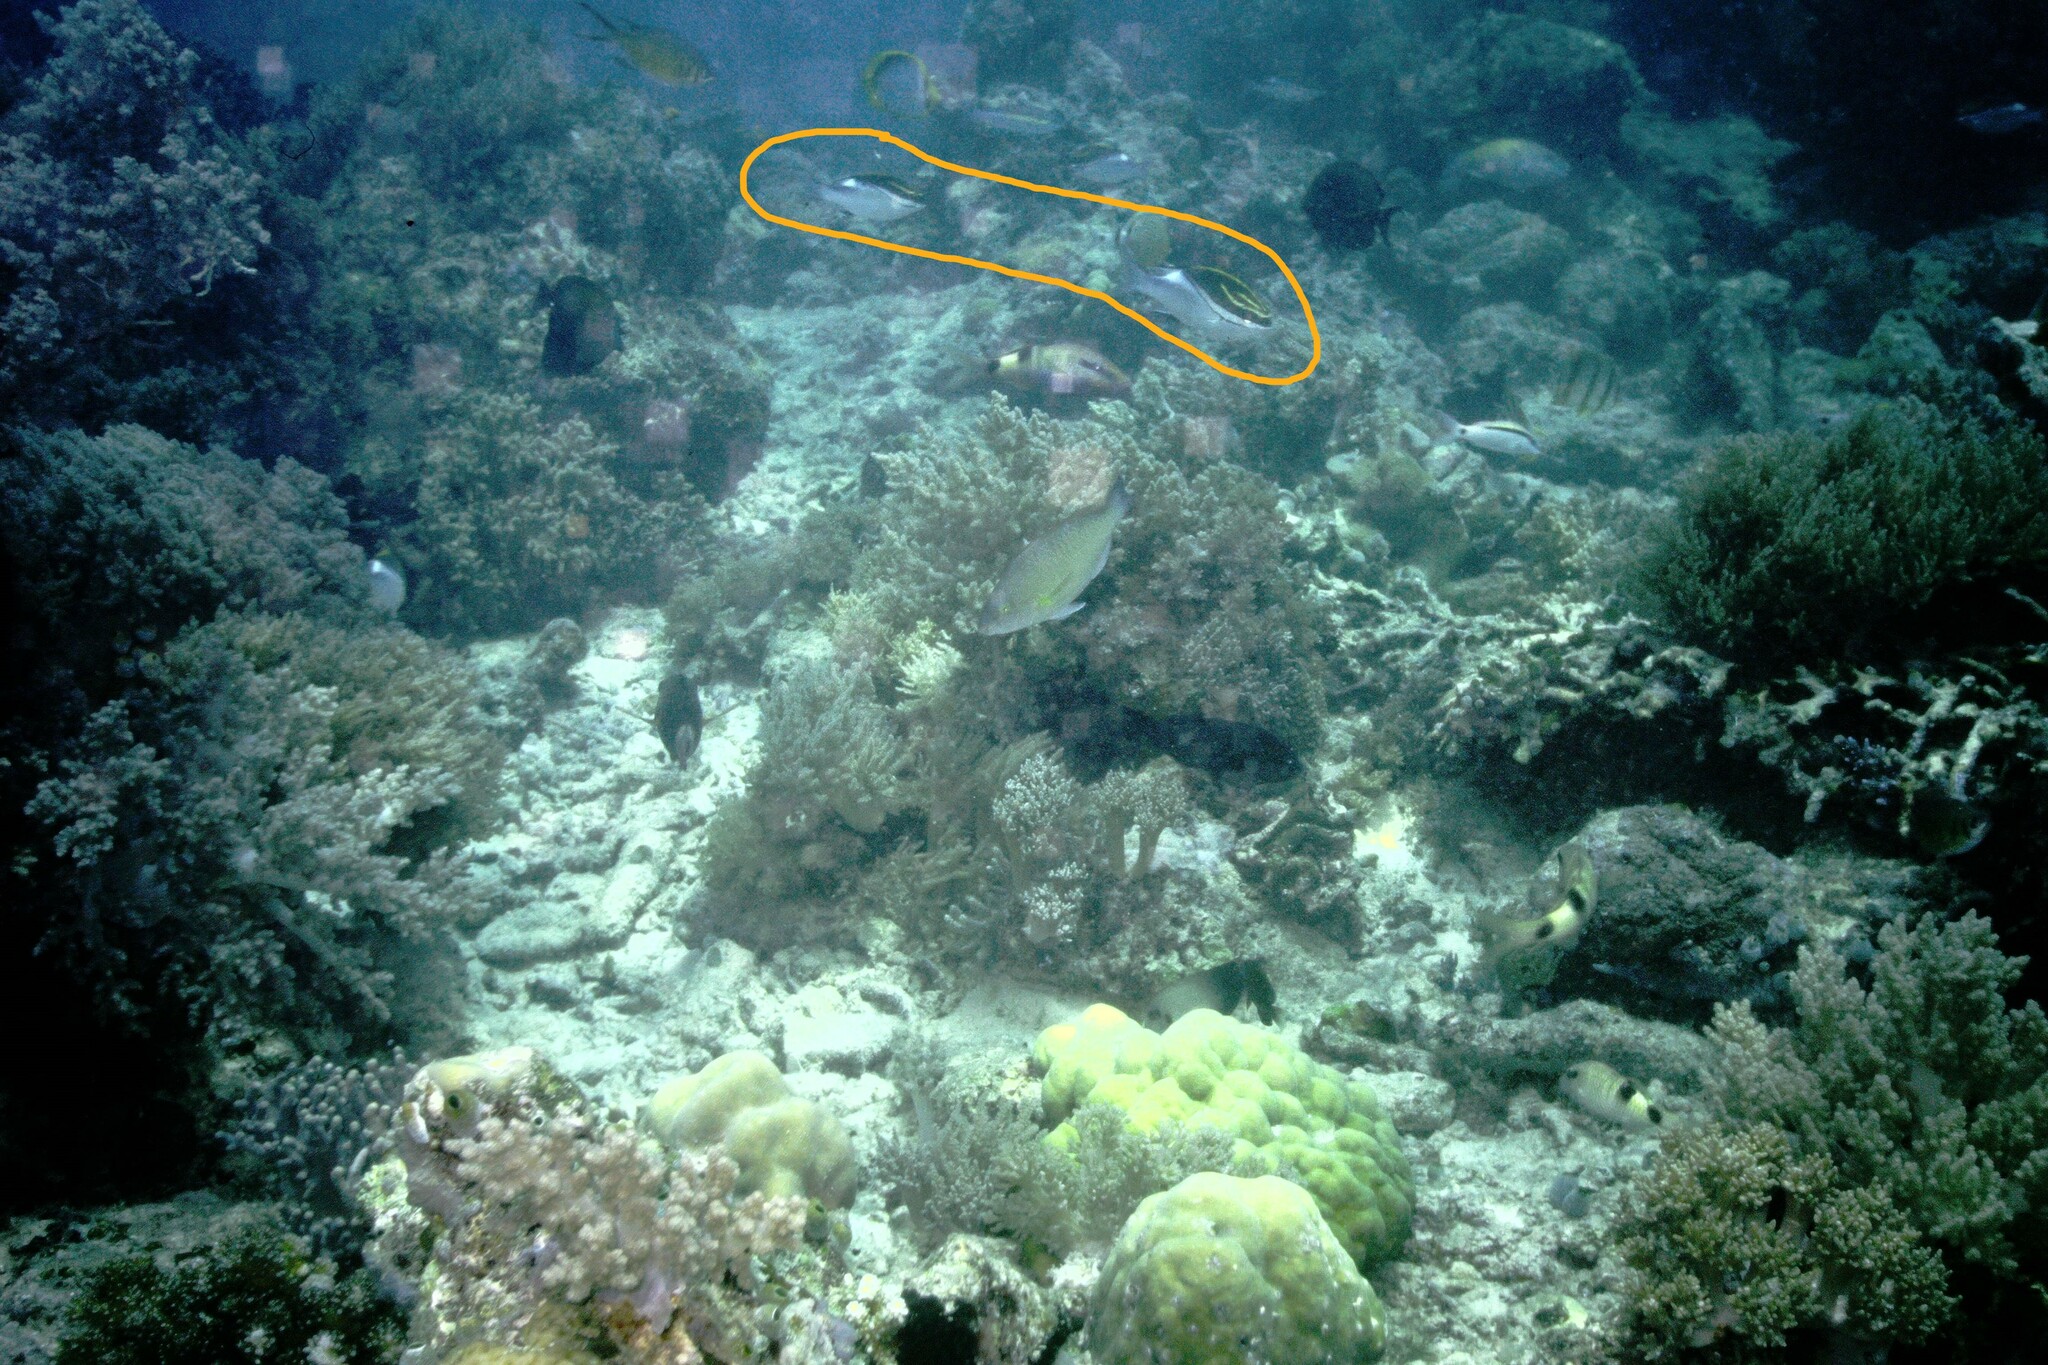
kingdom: Animalia
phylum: Chordata
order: Perciformes
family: Nemipteridae
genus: Scolopsis
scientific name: Scolopsis bilineata
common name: Two-lined monocle bream
